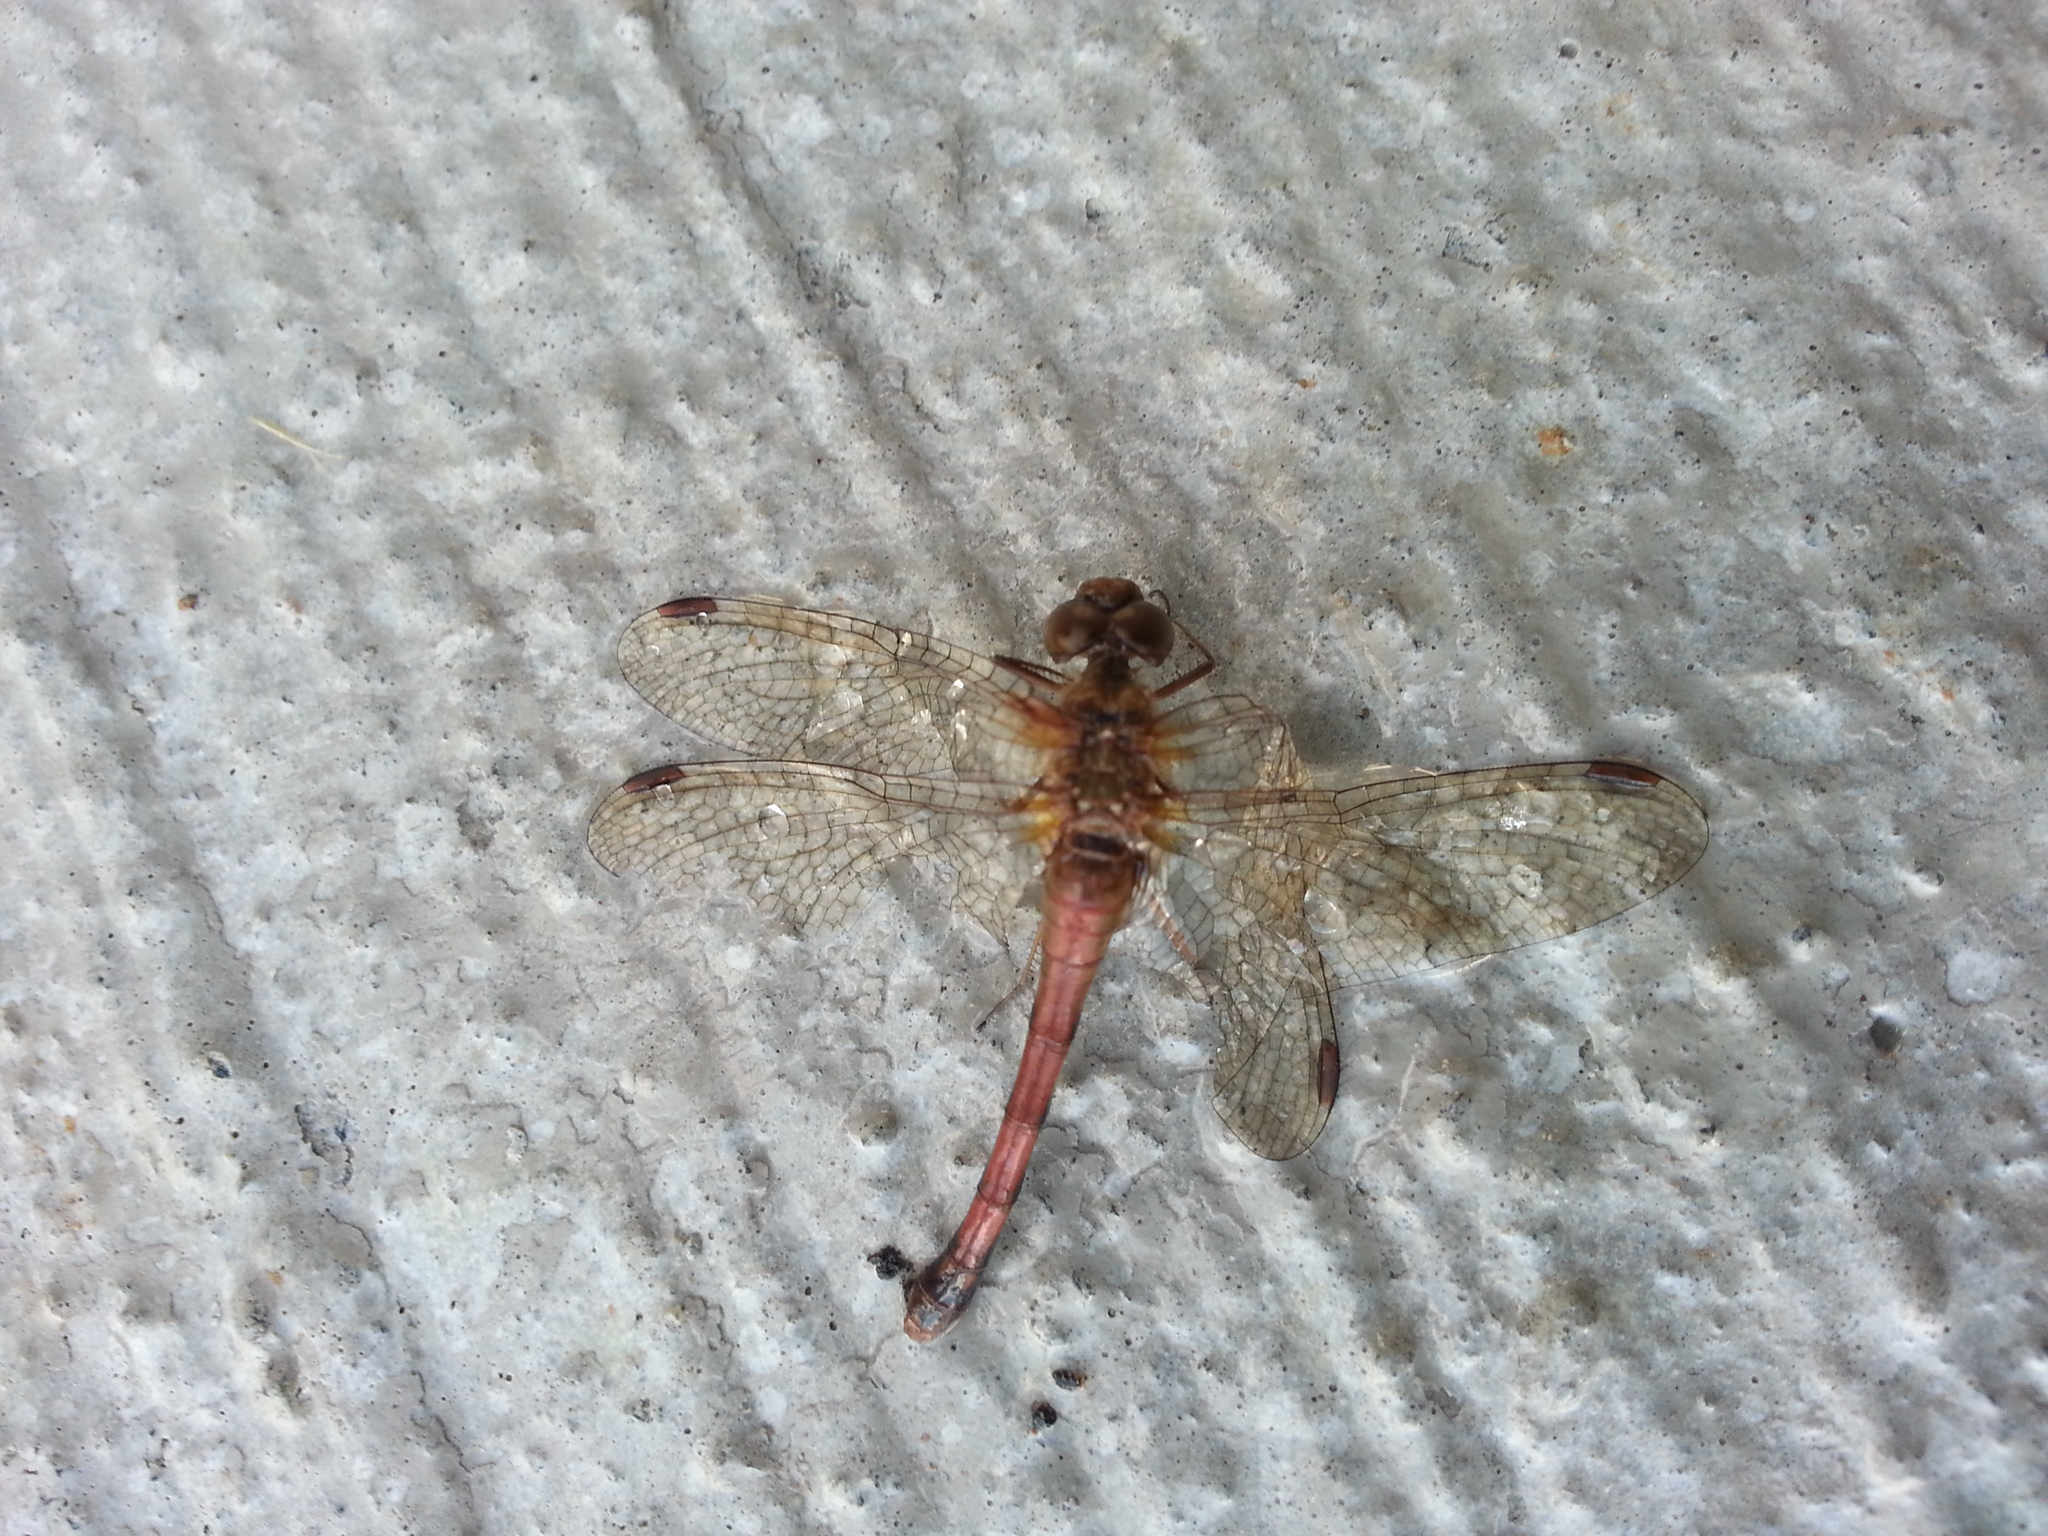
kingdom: Animalia
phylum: Arthropoda
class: Insecta
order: Odonata
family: Libellulidae
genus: Sympetrum
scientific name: Sympetrum vicinum
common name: Autumn meadowhawk
